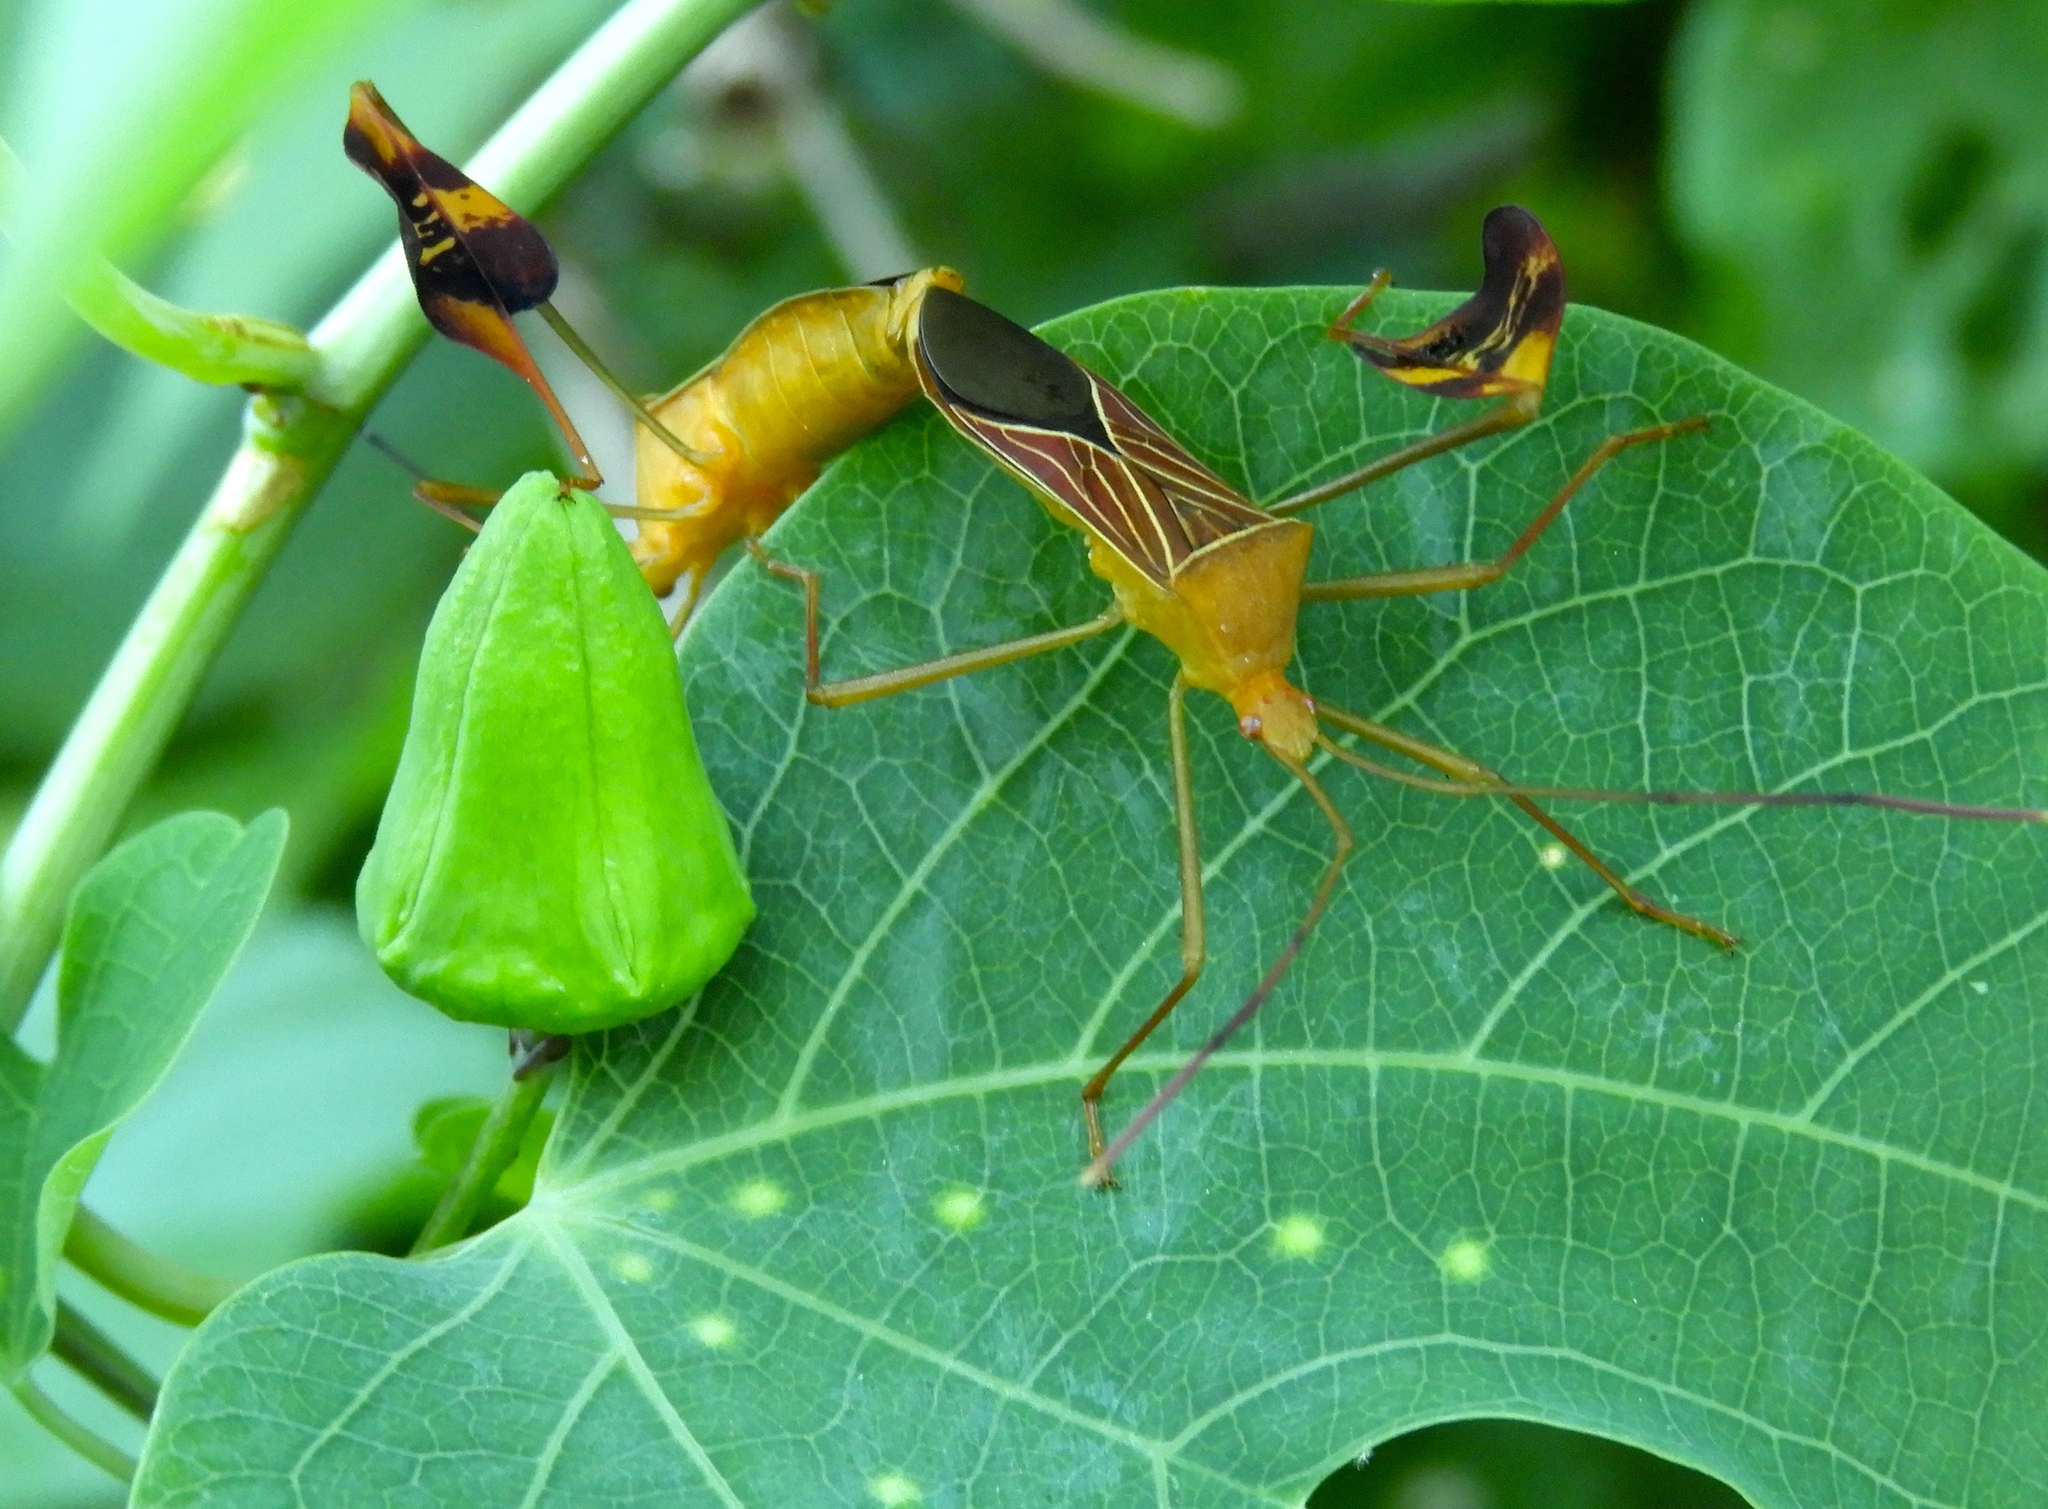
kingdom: Animalia
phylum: Arthropoda
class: Insecta
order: Hemiptera
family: Coreidae
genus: Bitta
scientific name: Bitta
